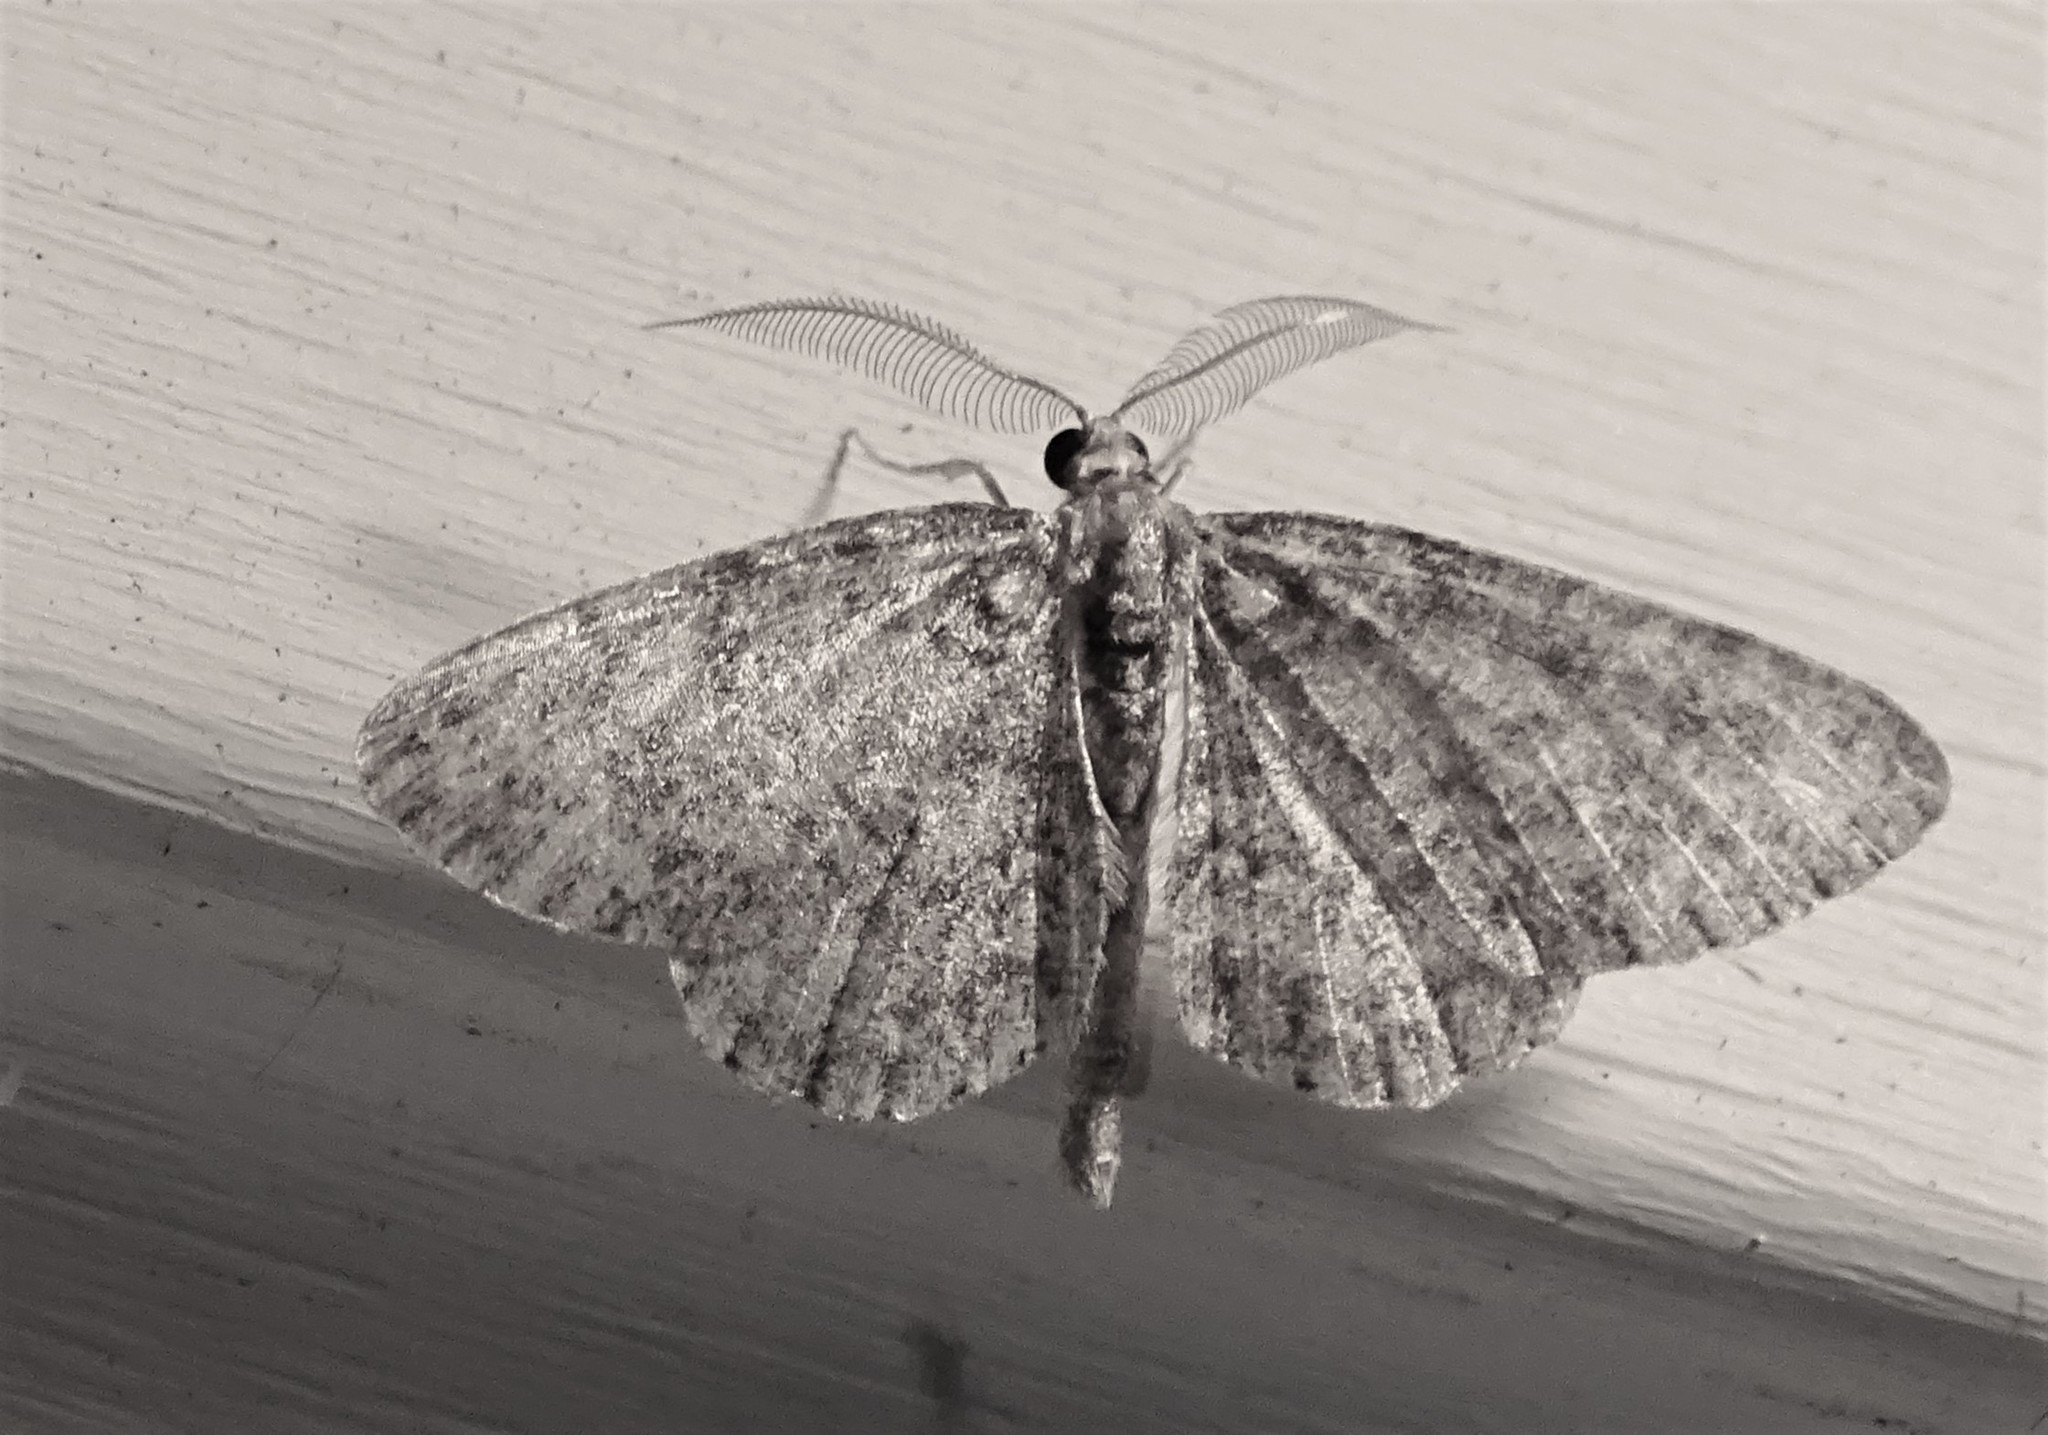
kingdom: Animalia
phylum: Arthropoda
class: Insecta
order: Lepidoptera
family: Geometridae
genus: Protoboarmia
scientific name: Protoboarmia porcelaria
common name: Porcelain gray
